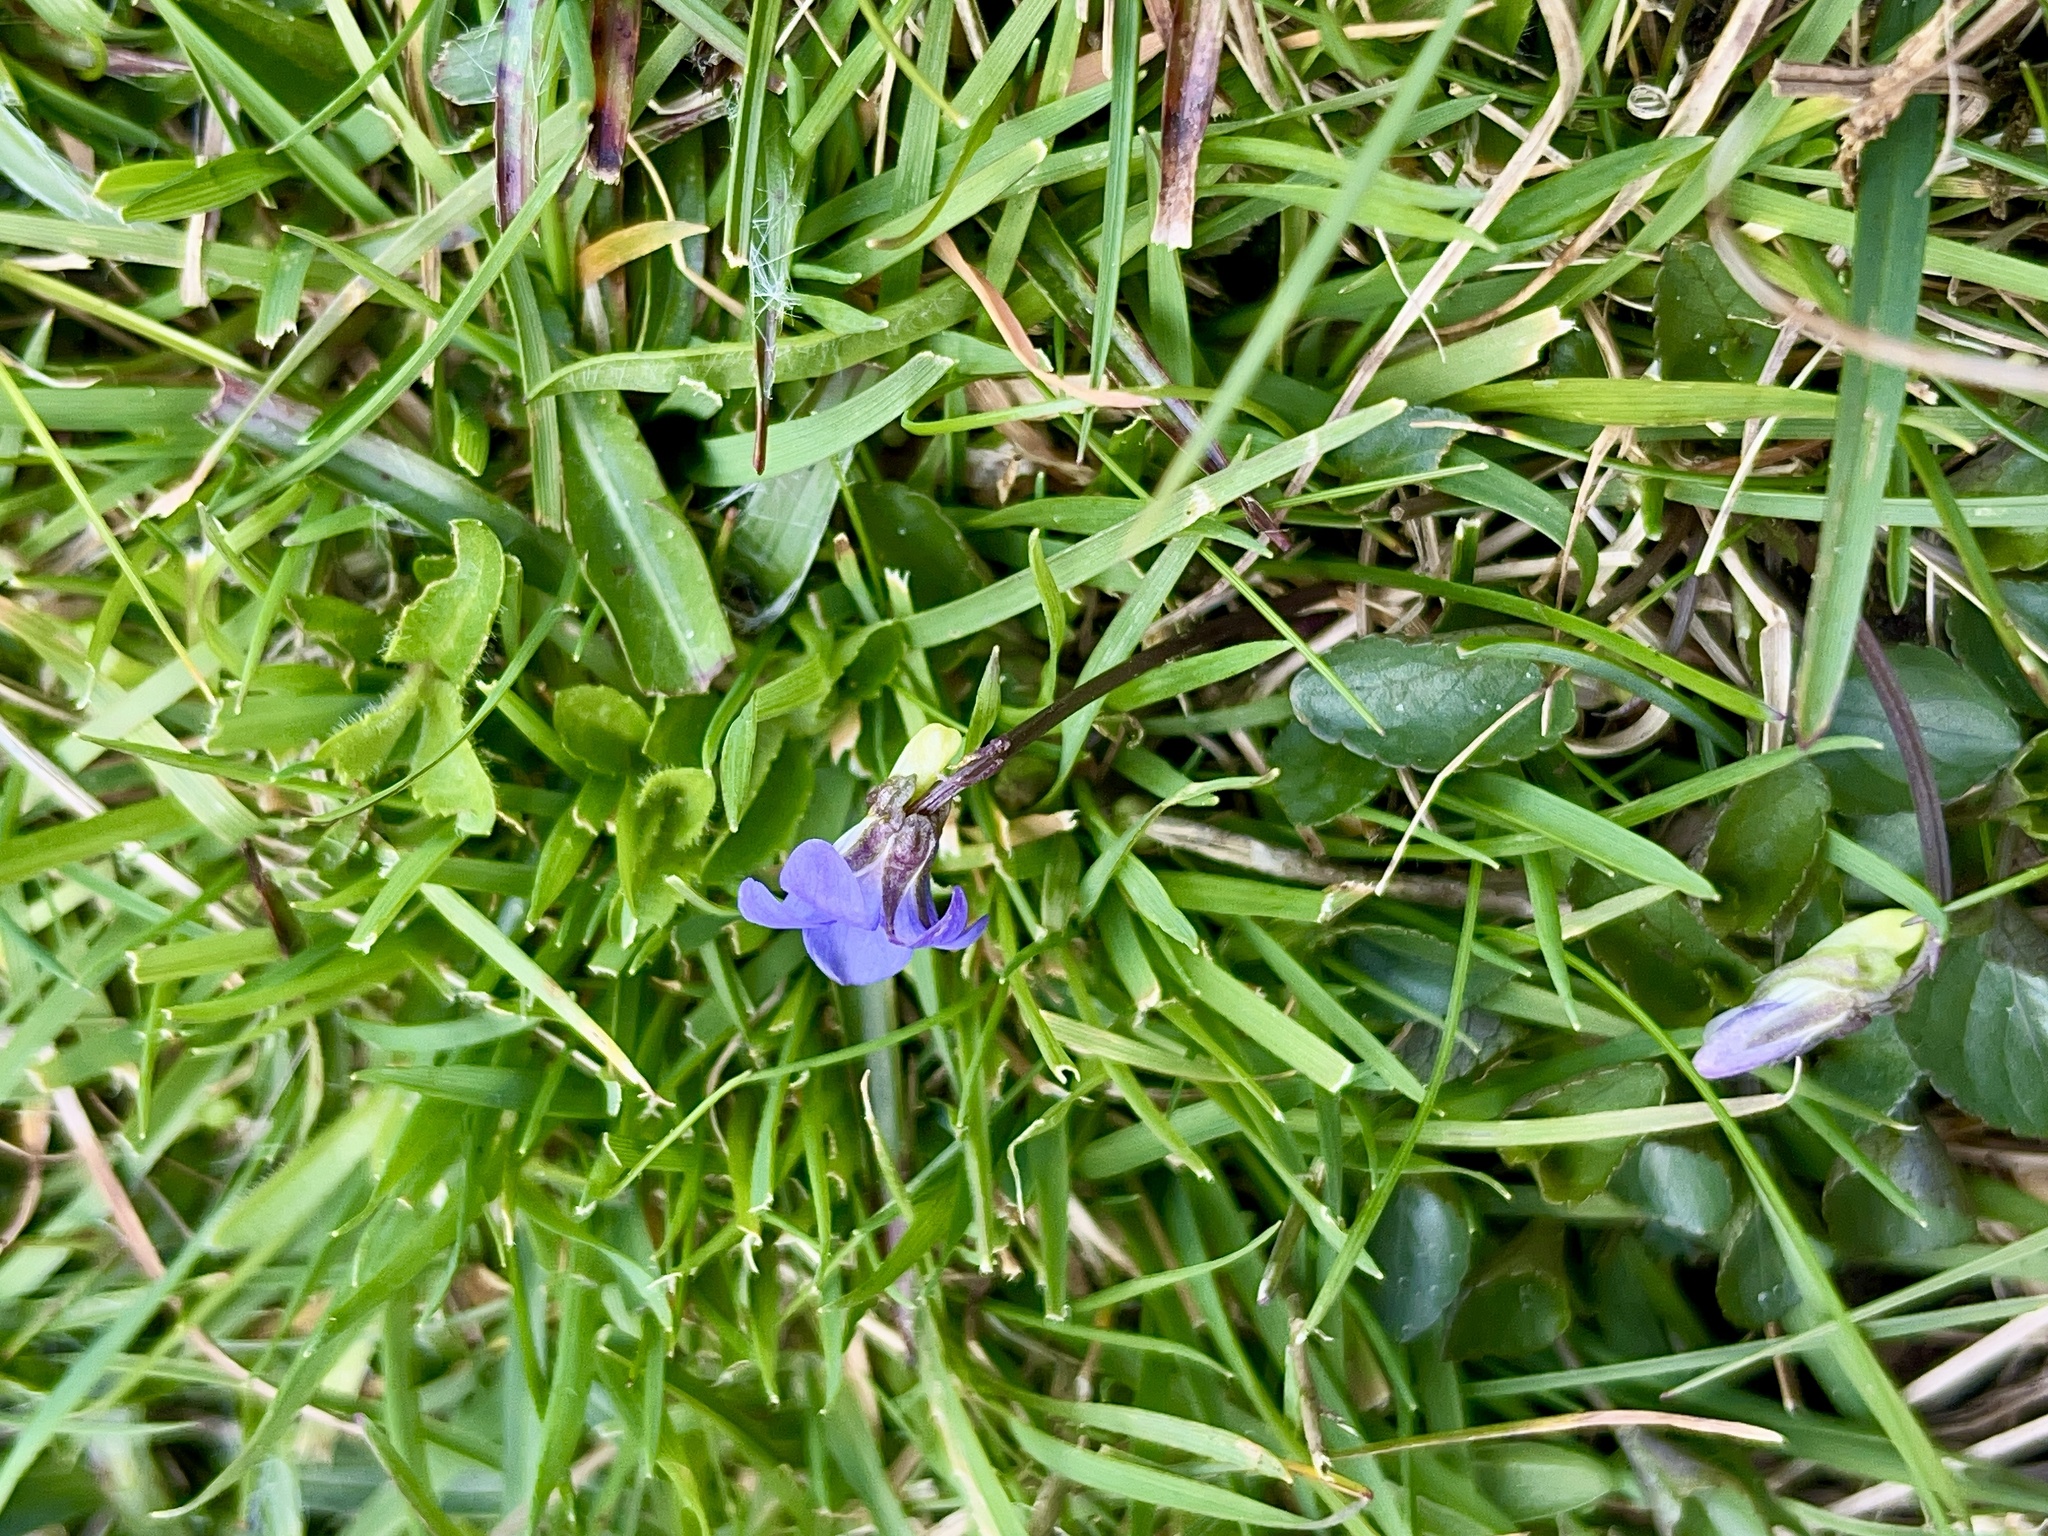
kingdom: Plantae
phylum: Tracheophyta
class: Magnoliopsida
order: Malpighiales
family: Violaceae
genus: Viola
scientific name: Viola riviniana
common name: Common dog-violet
